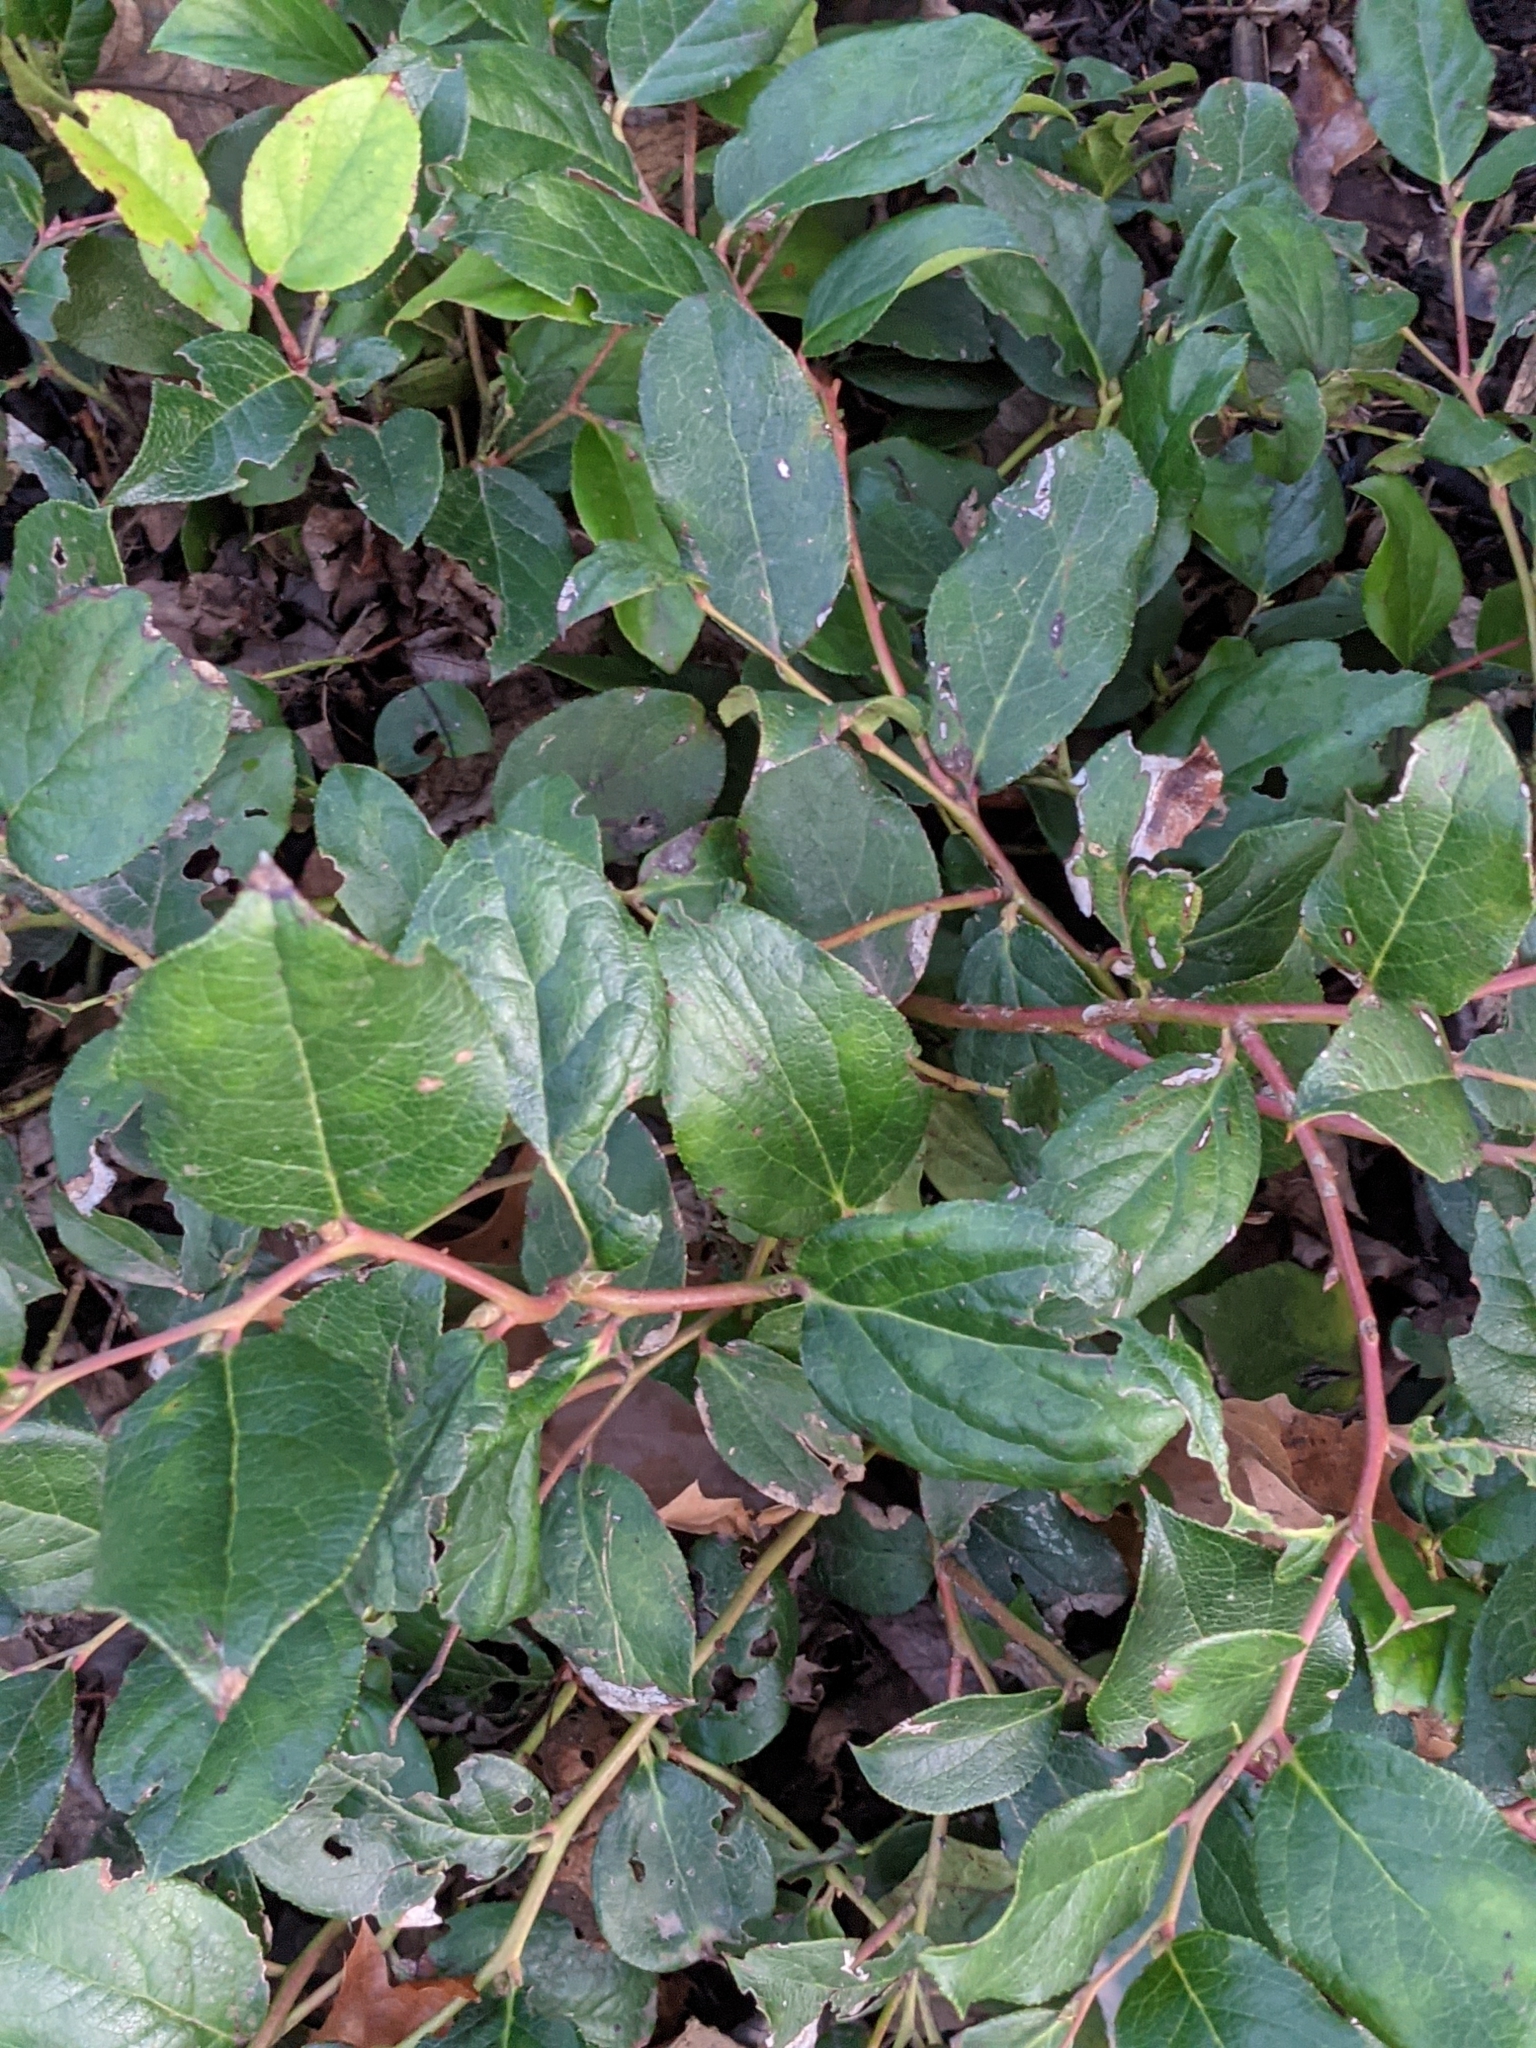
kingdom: Plantae
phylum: Tracheophyta
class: Magnoliopsida
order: Ericales
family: Ericaceae
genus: Gaultheria
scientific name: Gaultheria shallon
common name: Shallon
